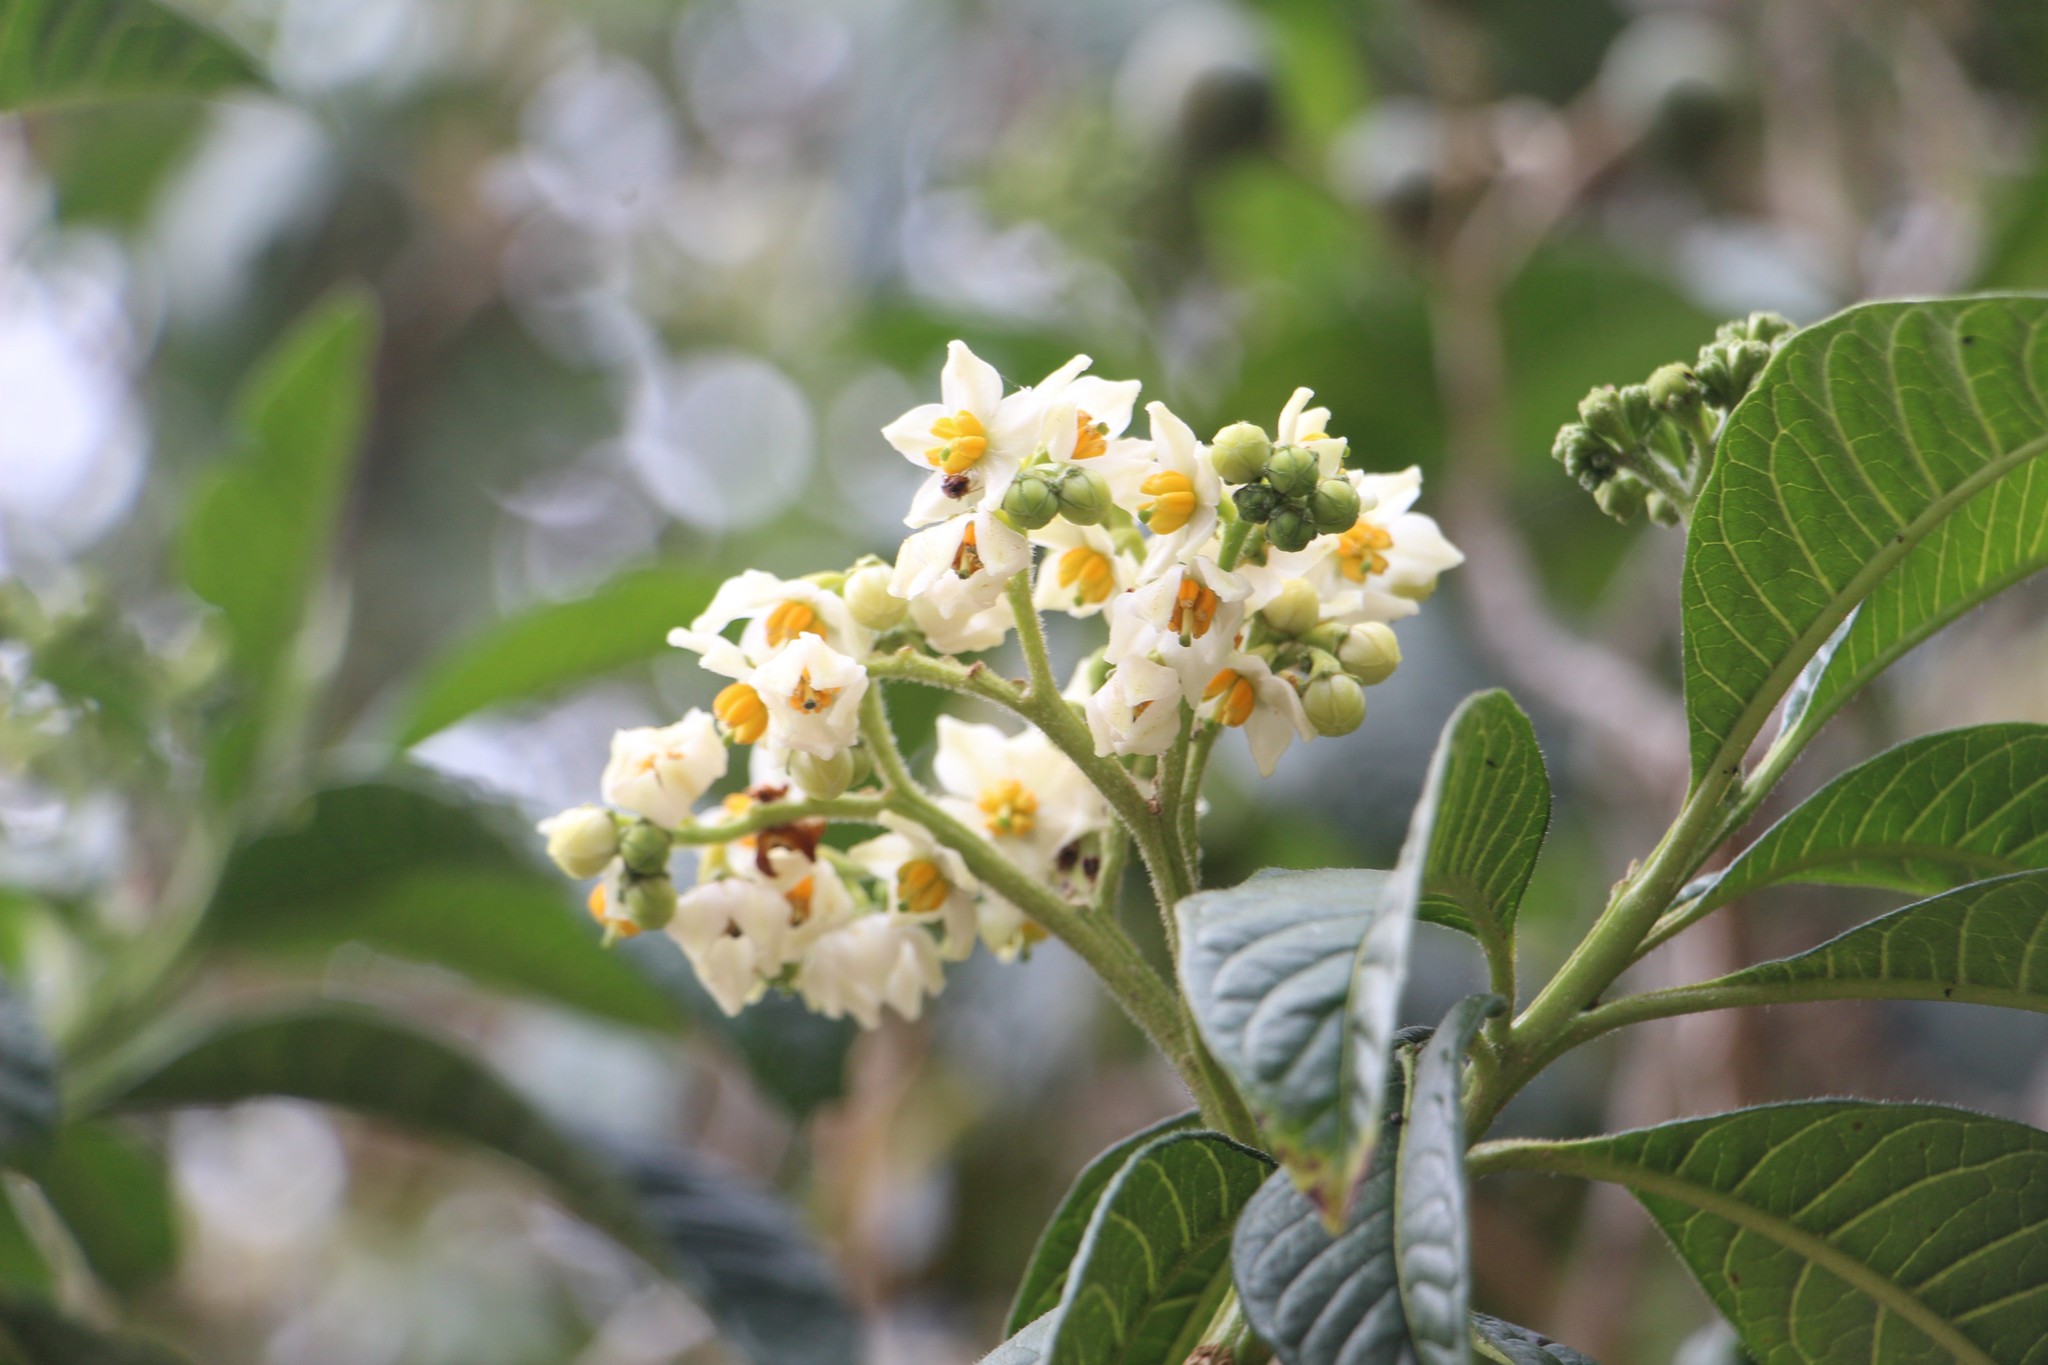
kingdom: Plantae
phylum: Tracheophyta
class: Magnoliopsida
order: Solanales
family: Solanaceae
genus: Solanum
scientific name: Solanum oblongifolium
